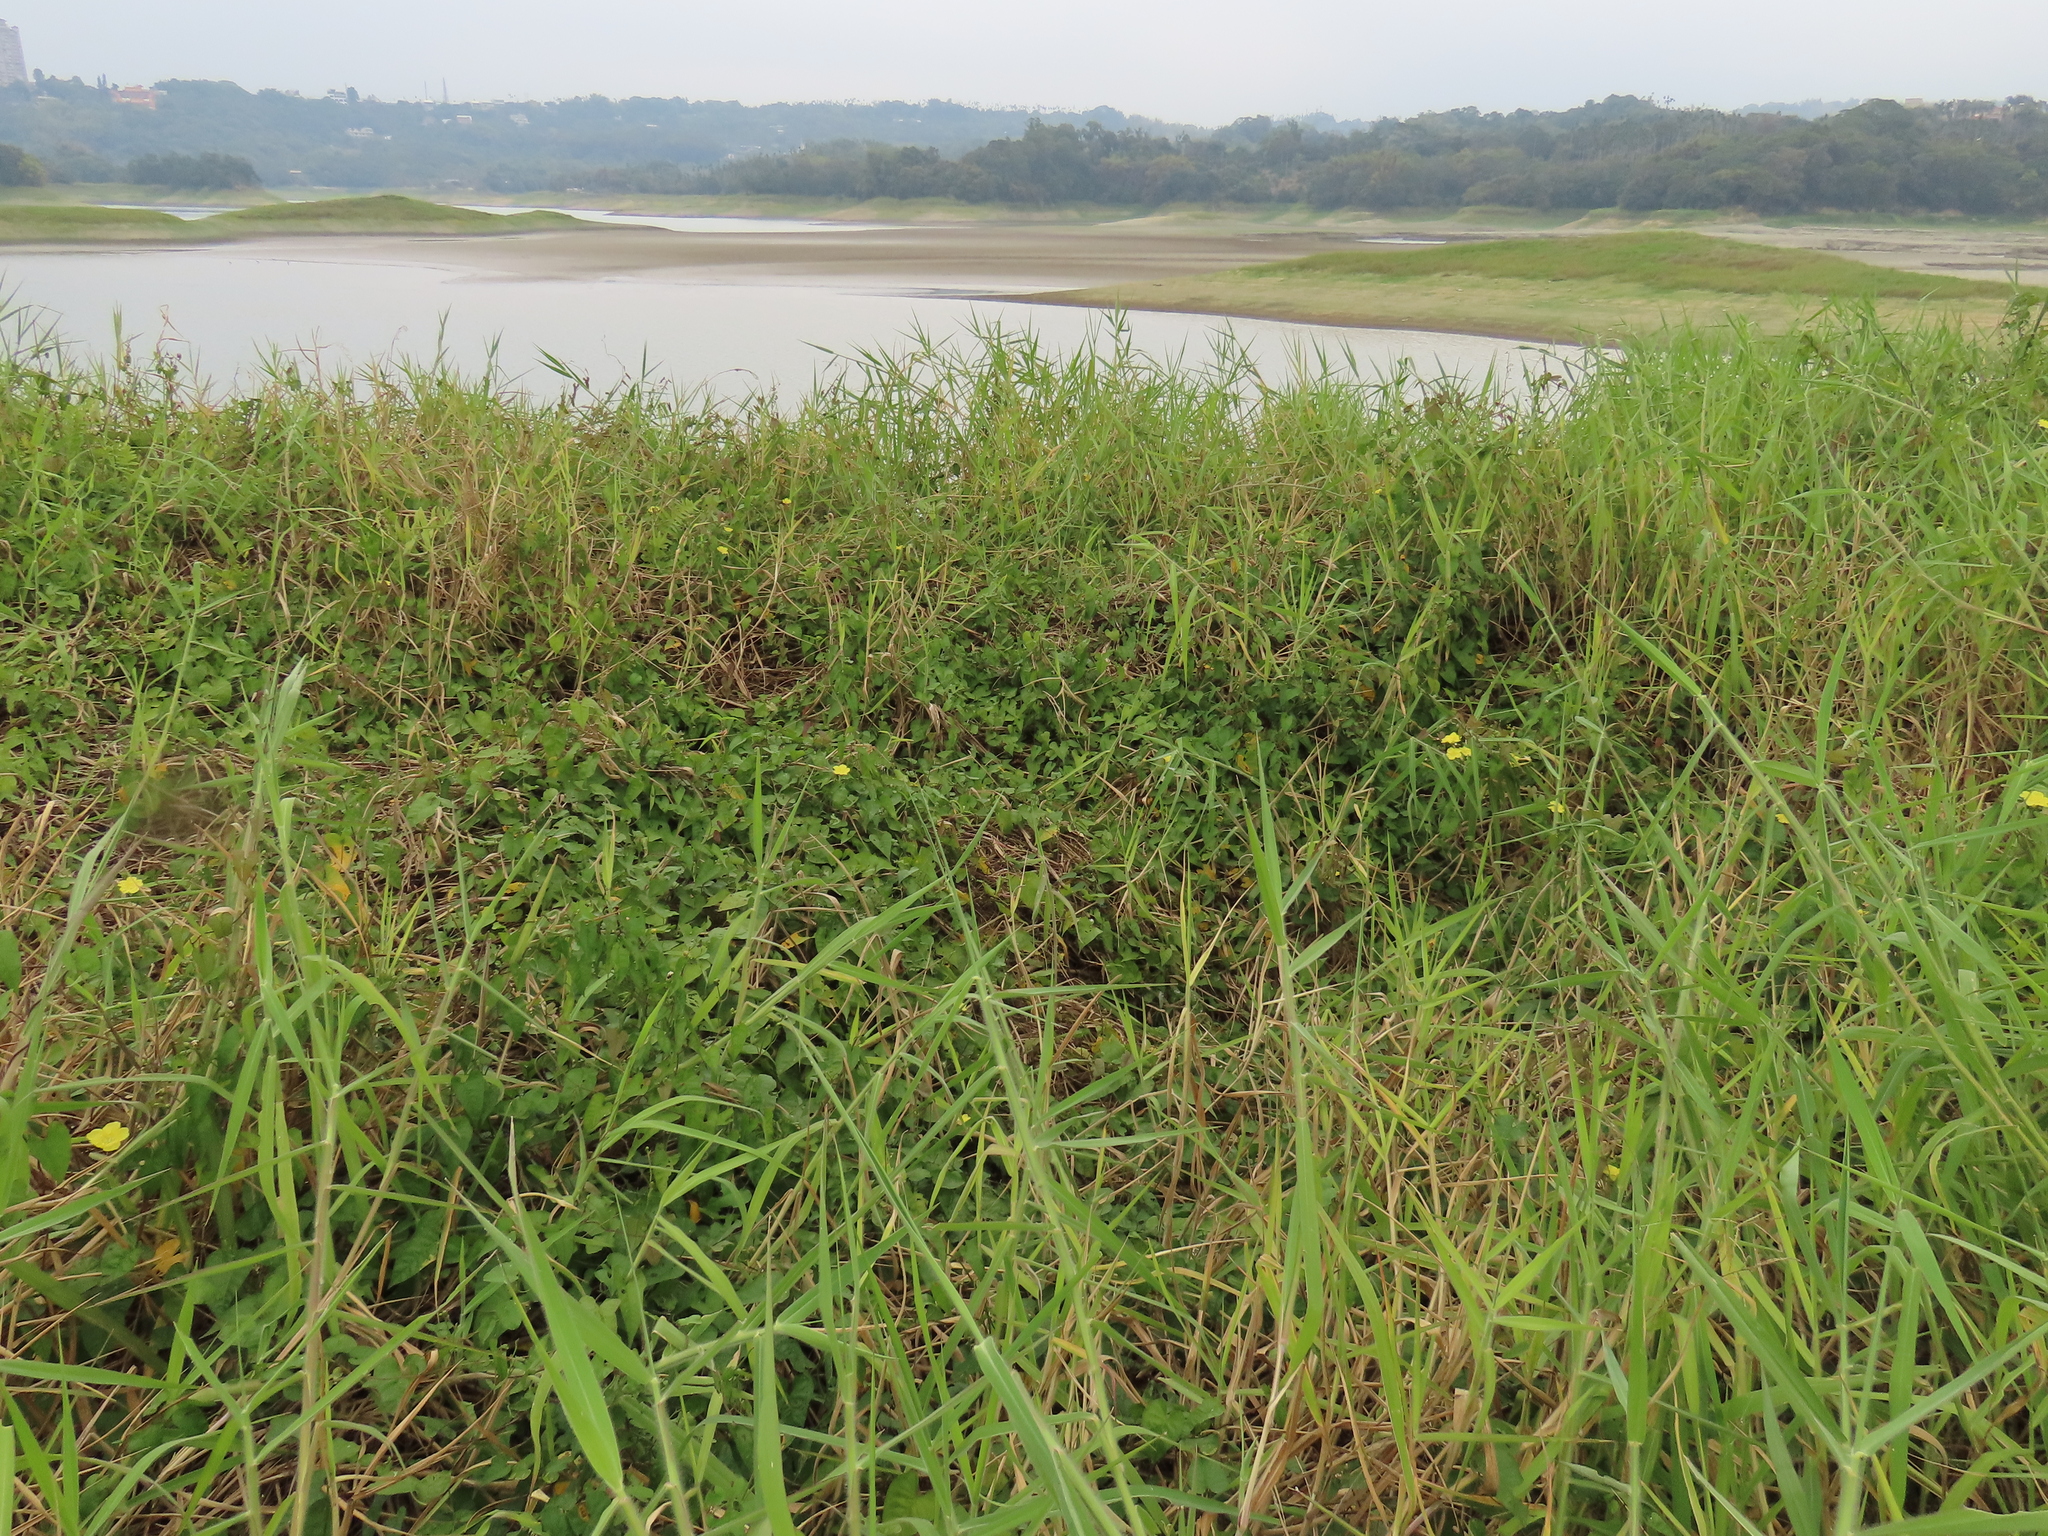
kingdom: Plantae
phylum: Tracheophyta
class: Magnoliopsida
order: Solanales
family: Convolvulaceae
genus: Merremia
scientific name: Merremia gemella
